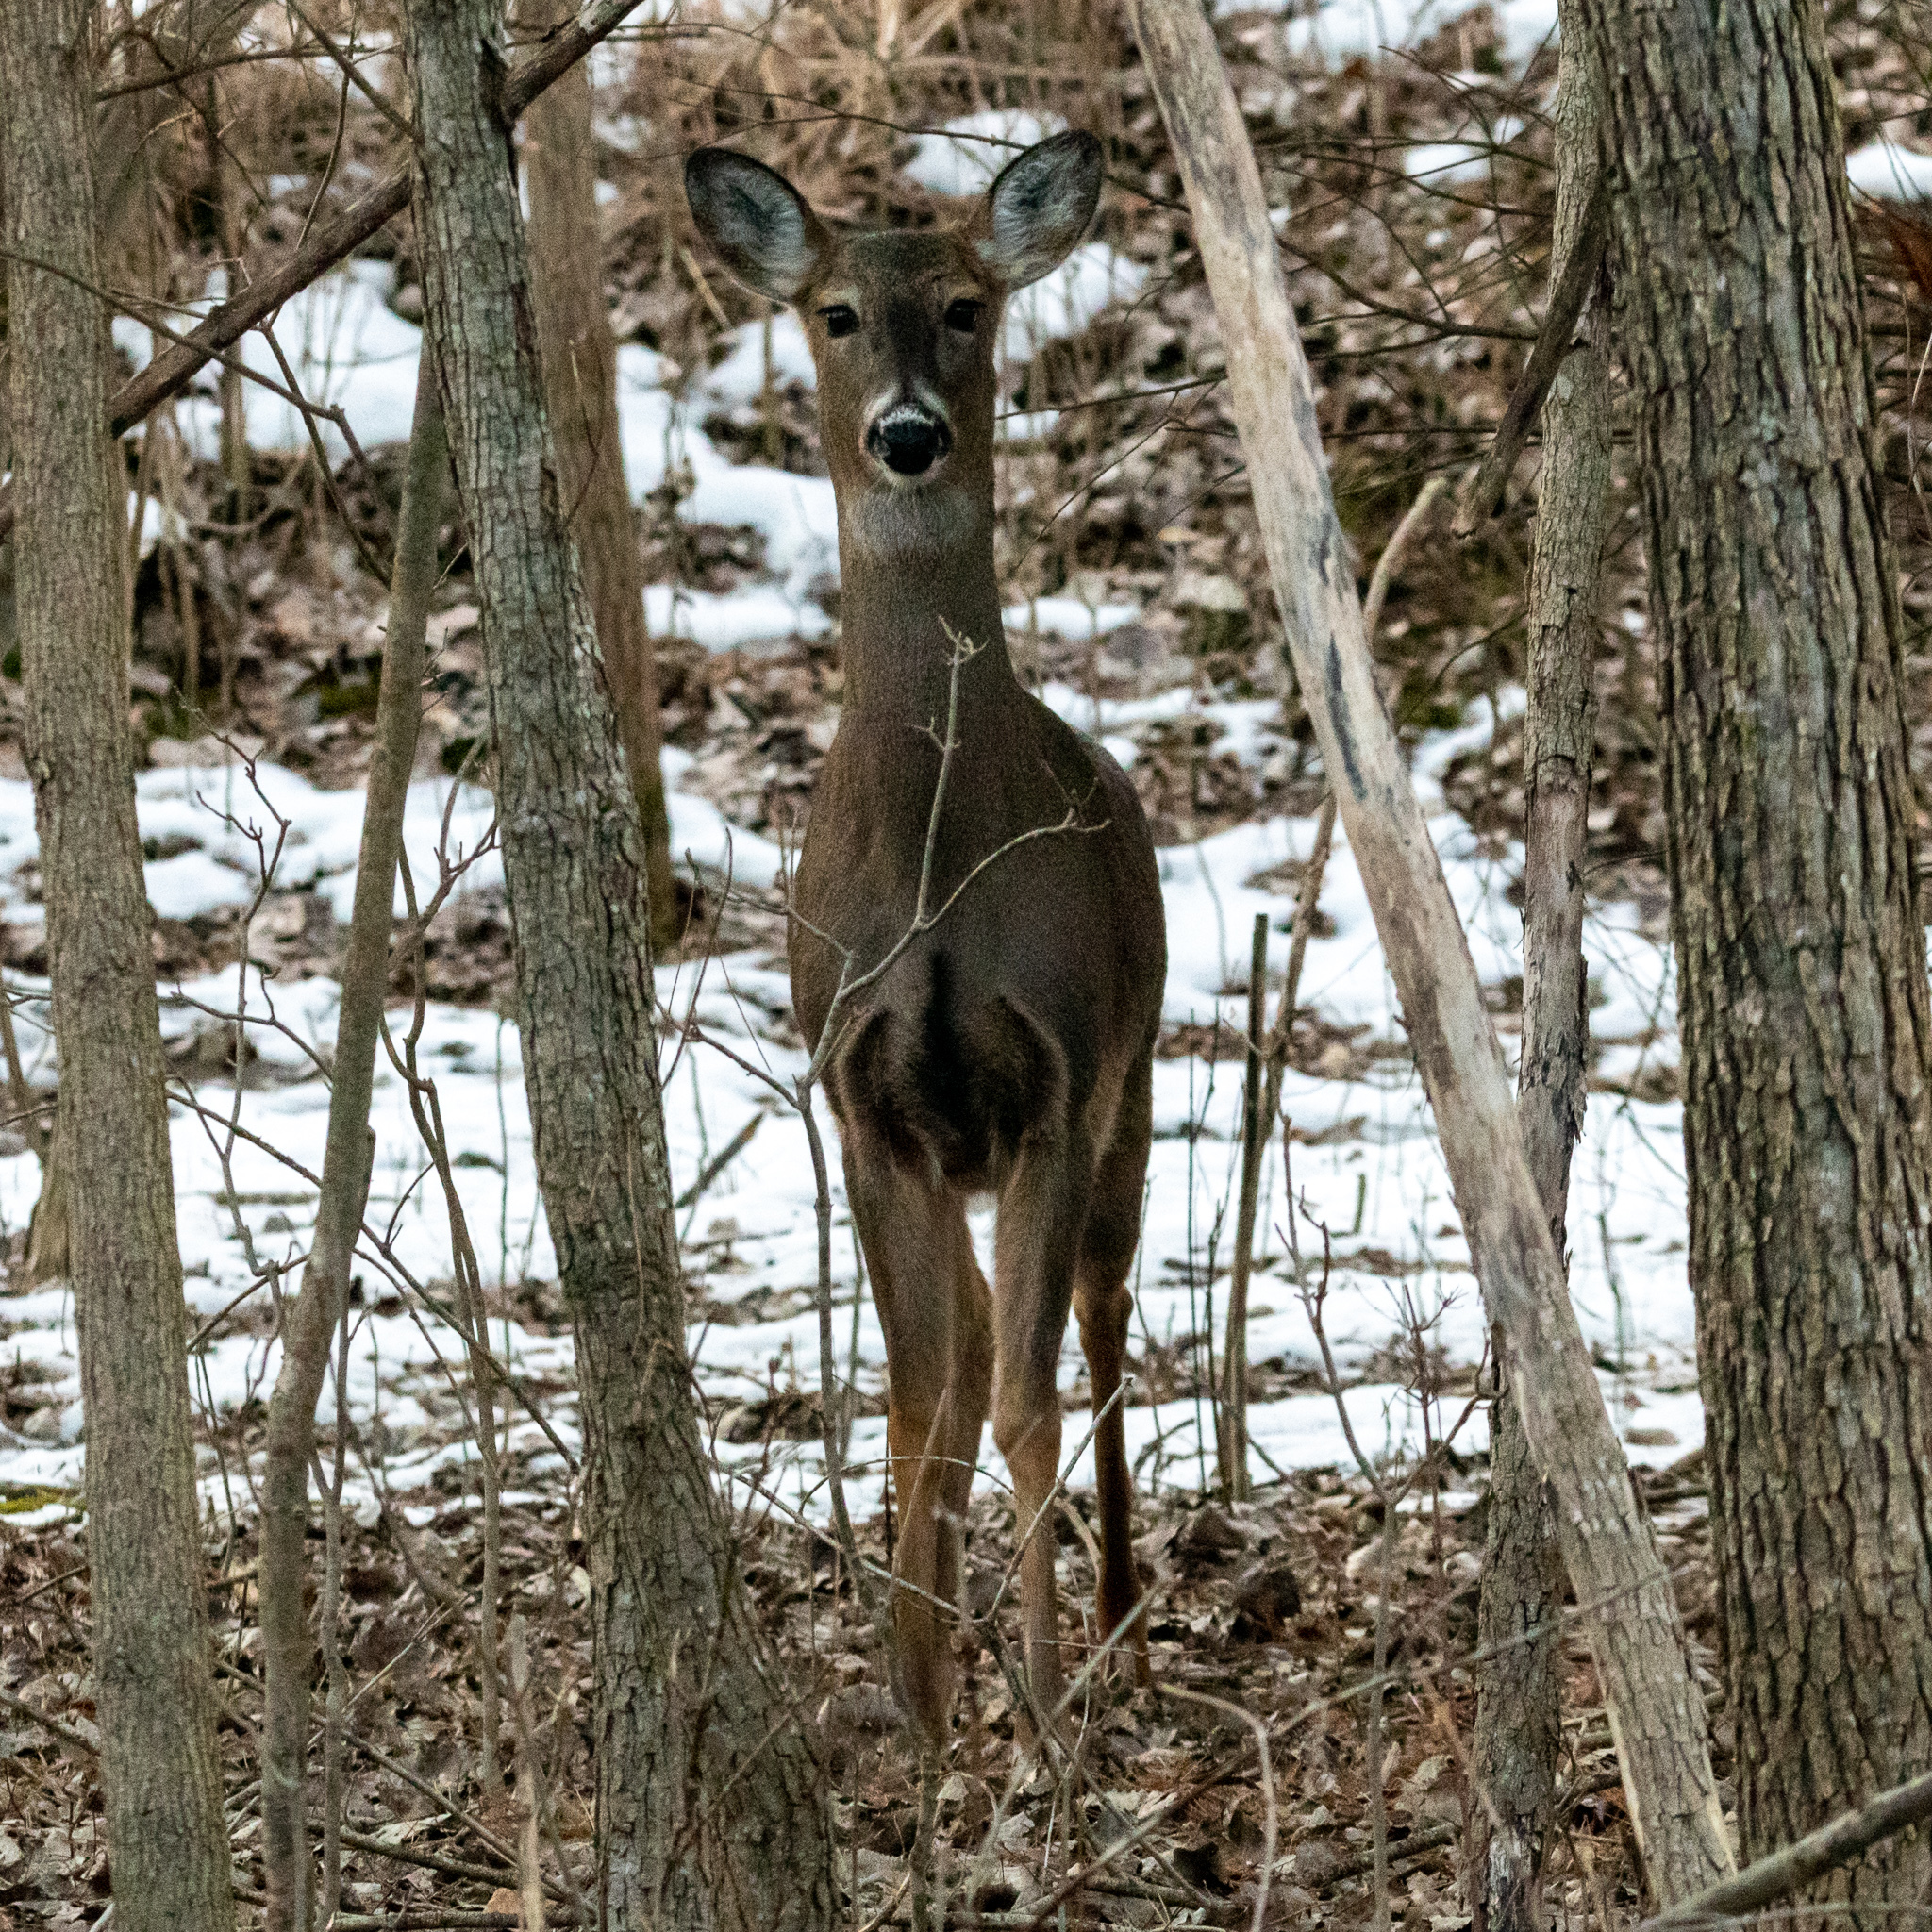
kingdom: Animalia
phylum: Chordata
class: Mammalia
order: Artiodactyla
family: Cervidae
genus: Odocoileus
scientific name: Odocoileus virginianus
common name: White-tailed deer
